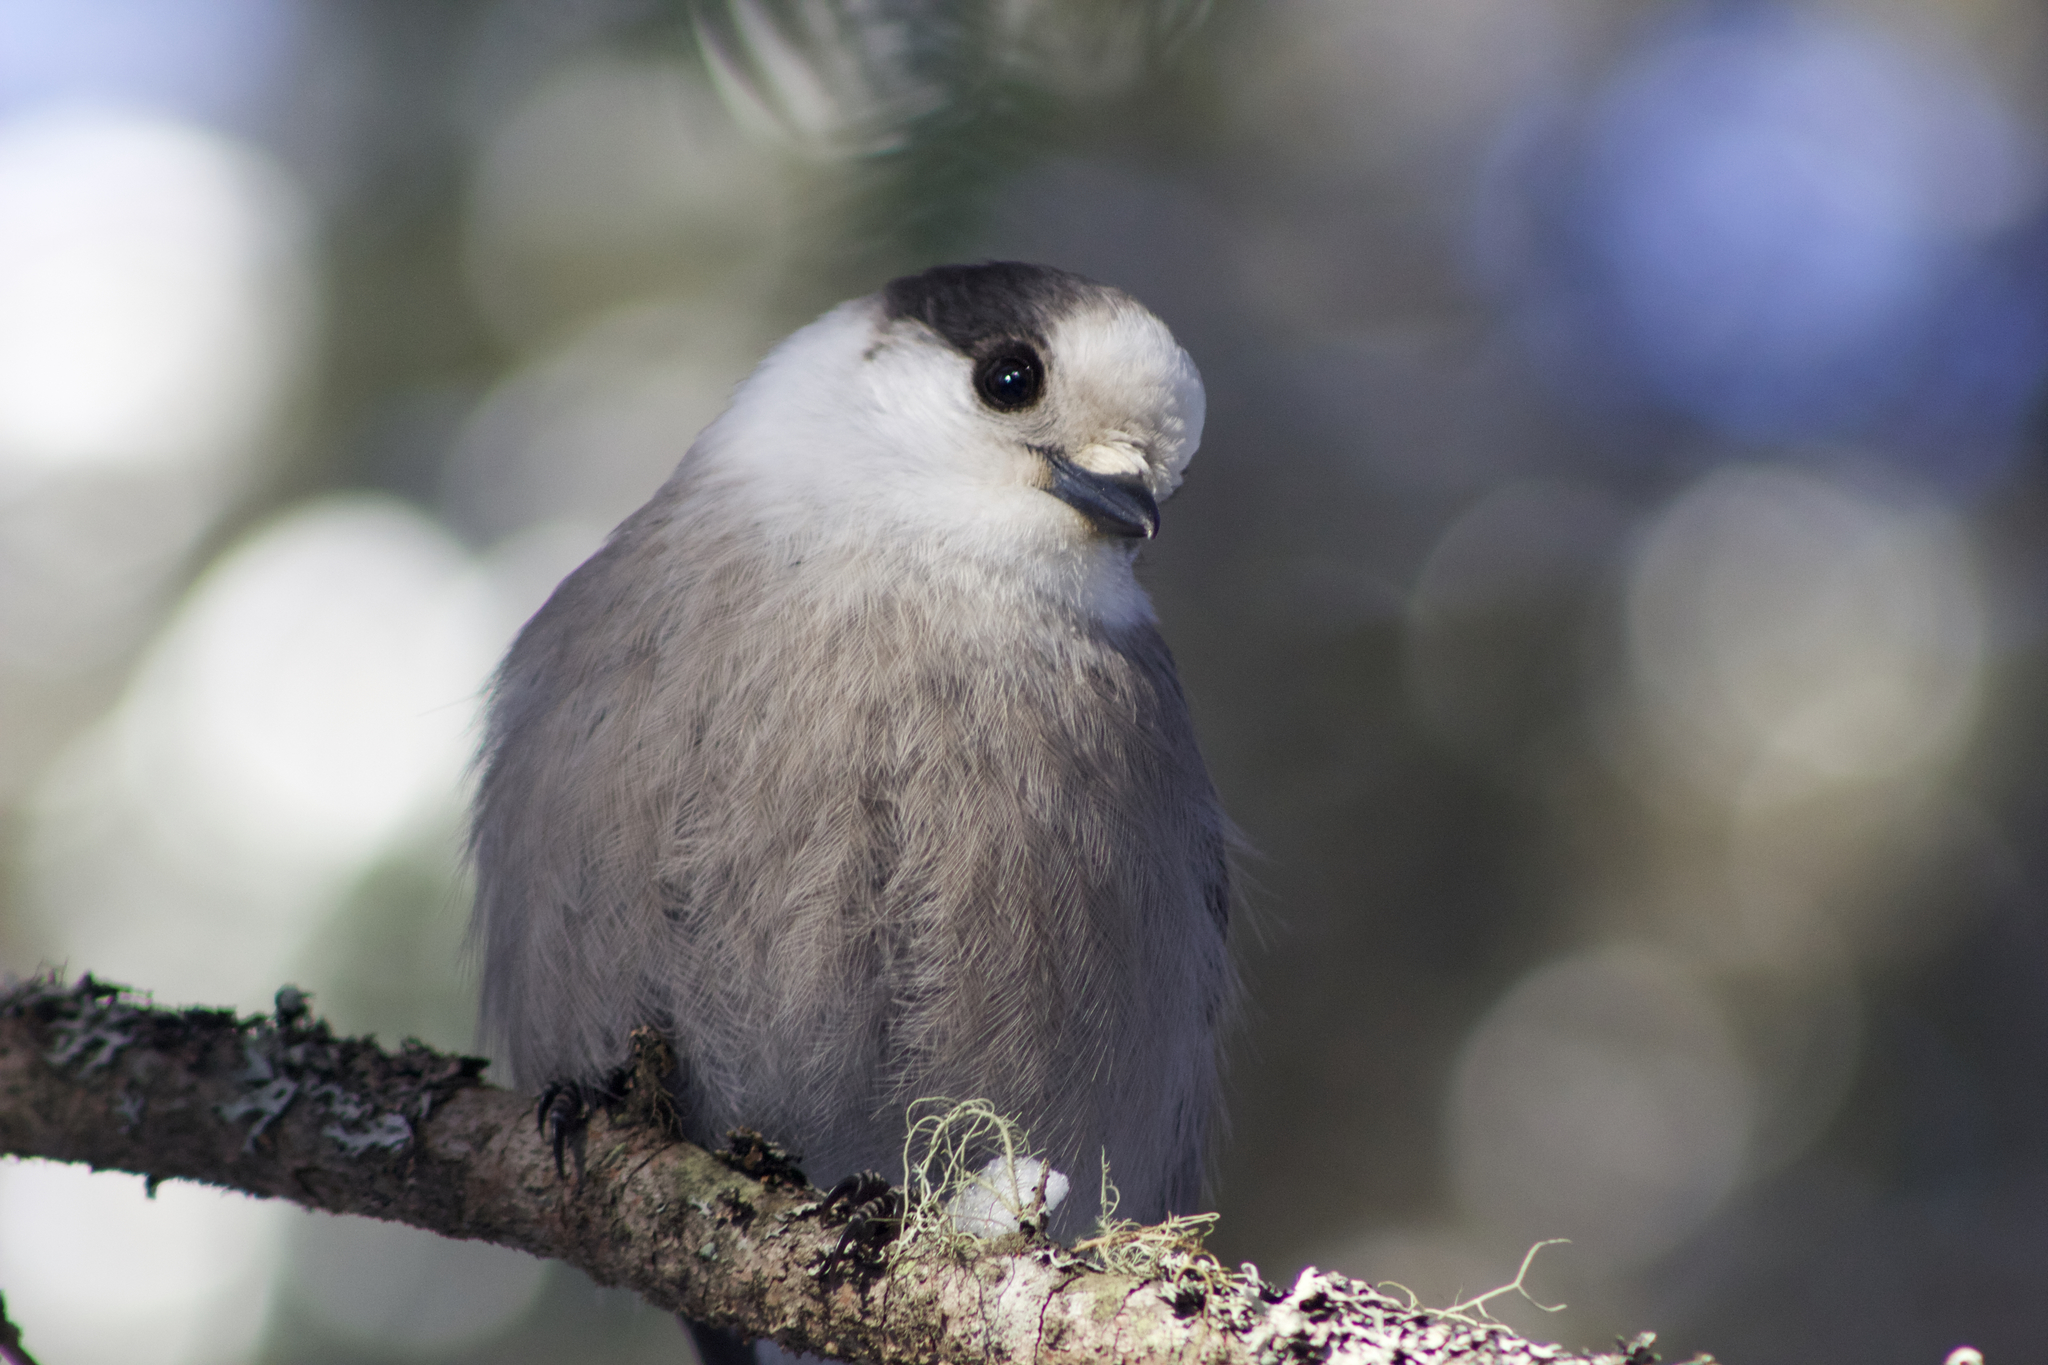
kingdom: Animalia
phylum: Chordata
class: Aves
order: Passeriformes
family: Corvidae
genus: Perisoreus
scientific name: Perisoreus canadensis
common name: Gray jay
